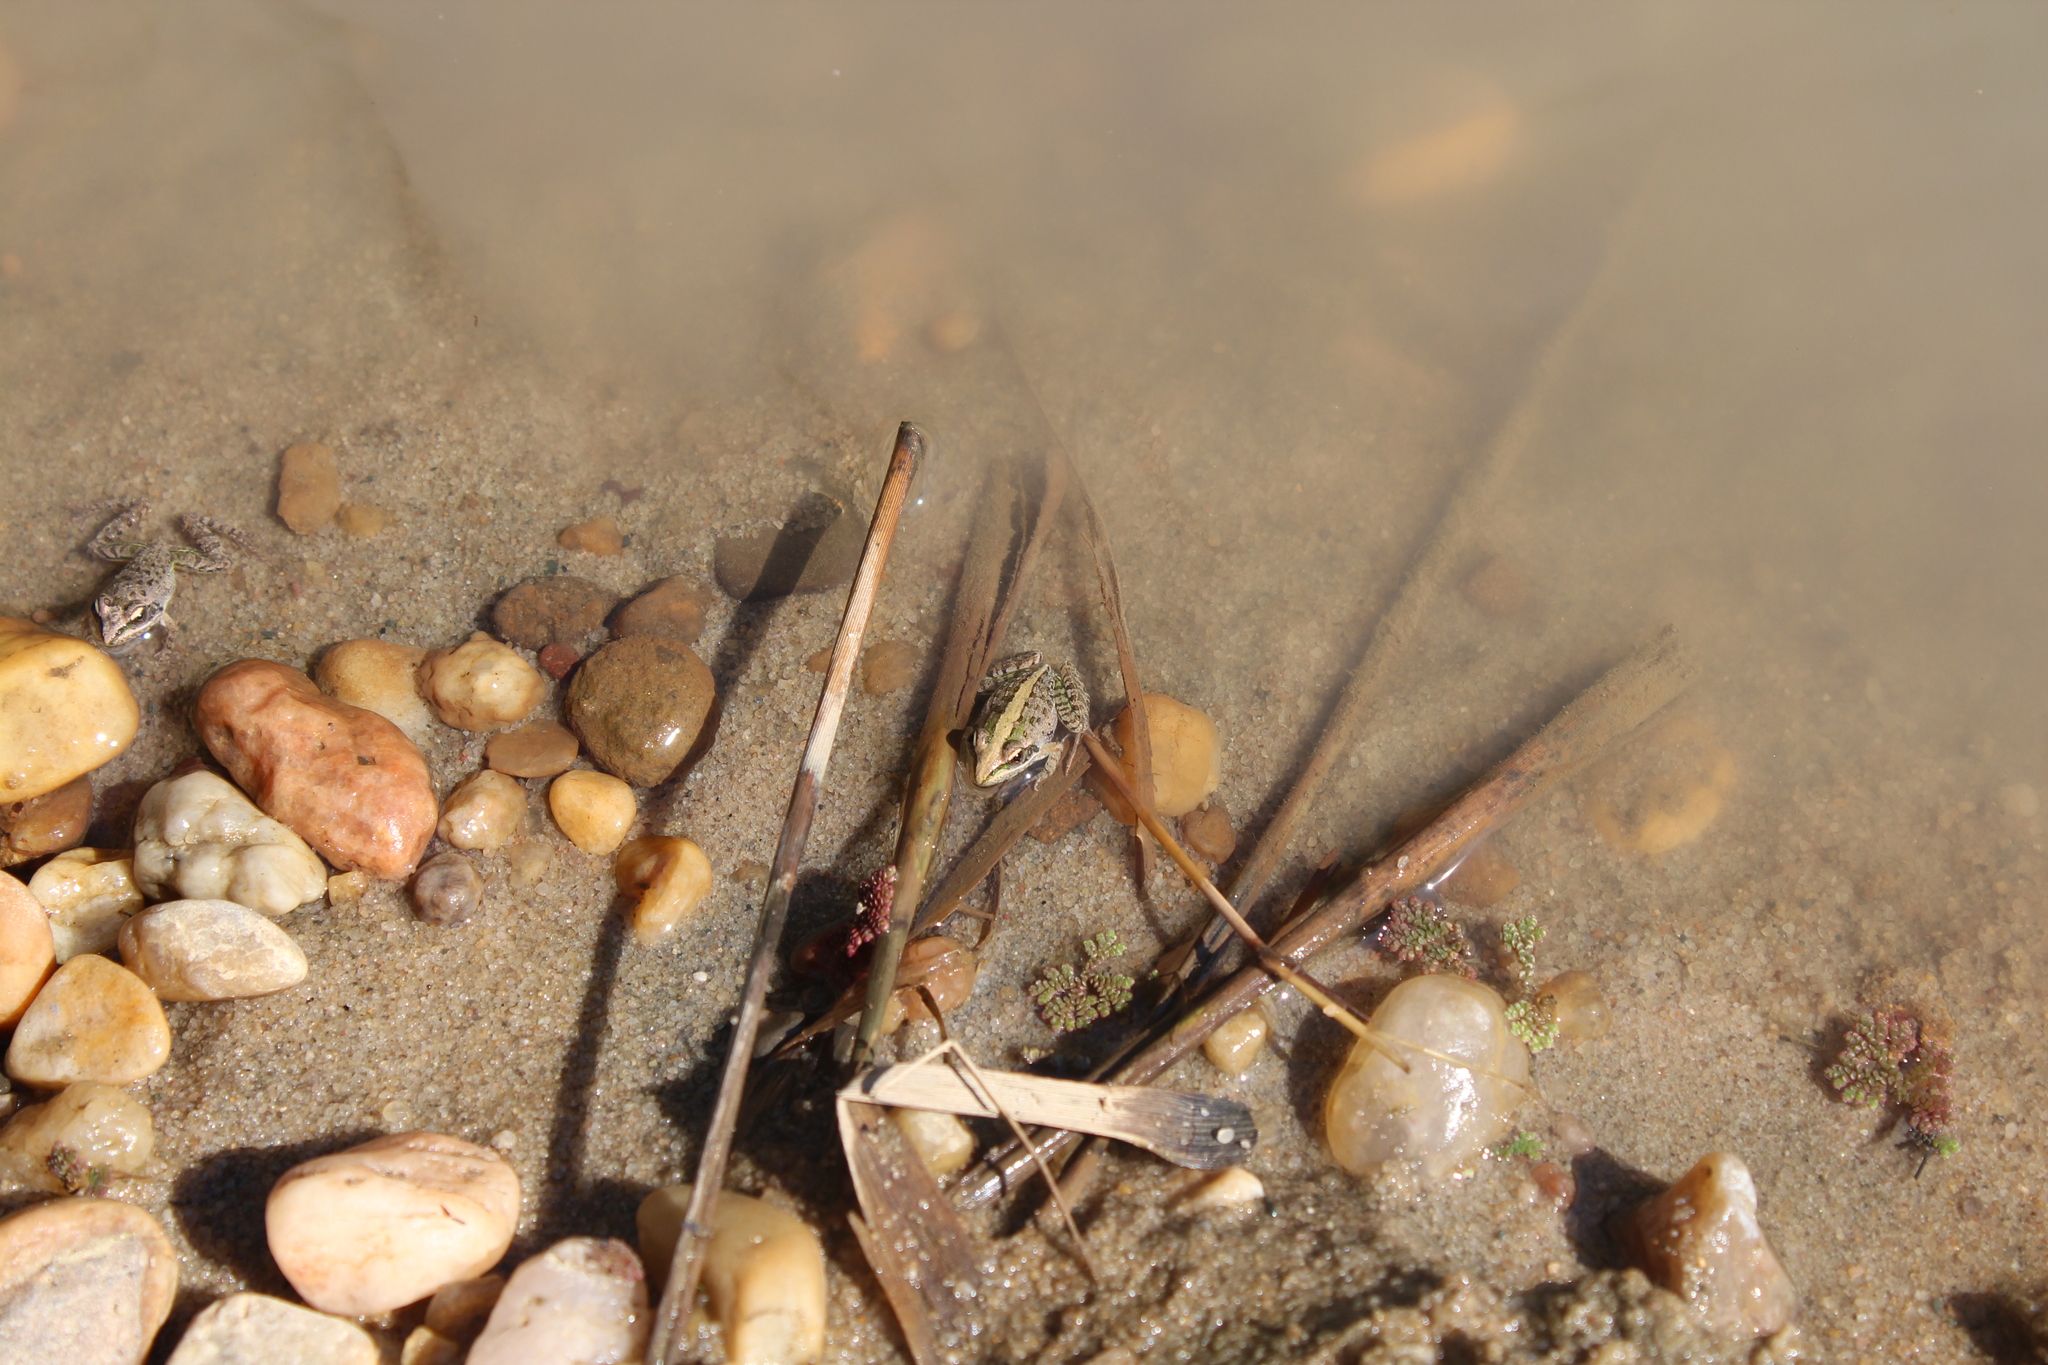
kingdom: Animalia
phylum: Chordata
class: Amphibia
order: Anura
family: Ptychadenidae
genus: Ptychadena
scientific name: Ptychadena mascareniensis
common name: Mascarene grass frog
